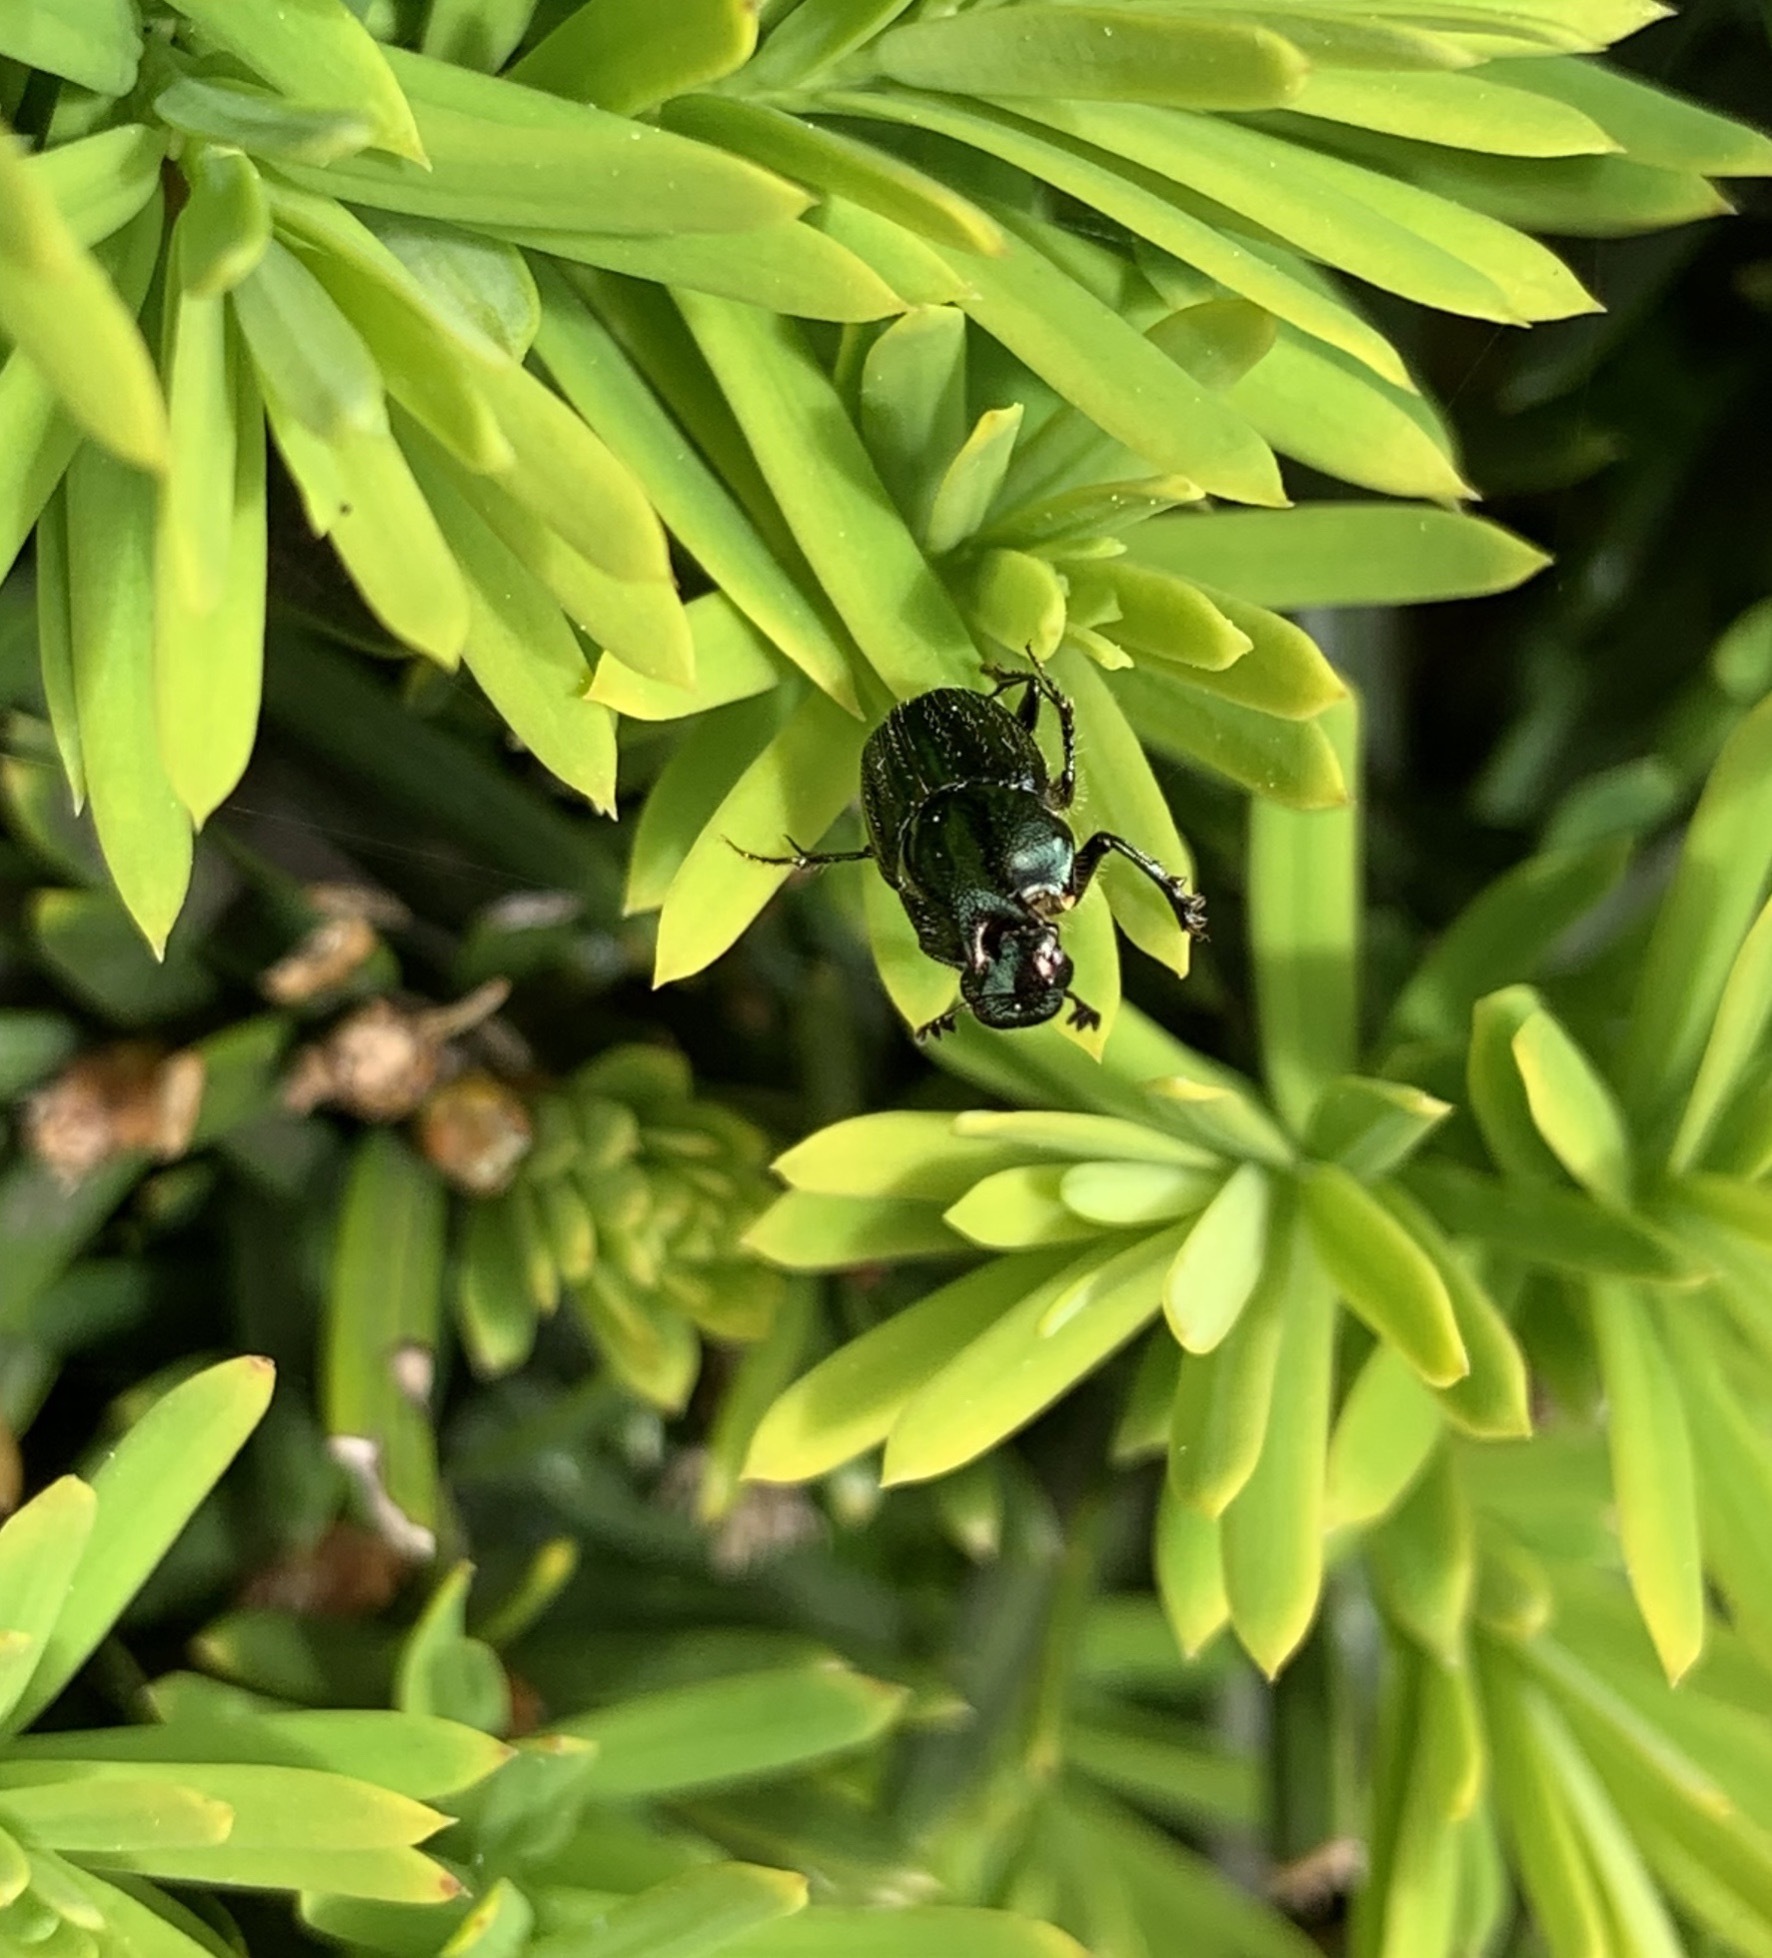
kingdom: Animalia
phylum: Arthropoda
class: Insecta
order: Coleoptera
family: Scarabaeidae
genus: Onthophagus
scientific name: Onthophagus orpheus
